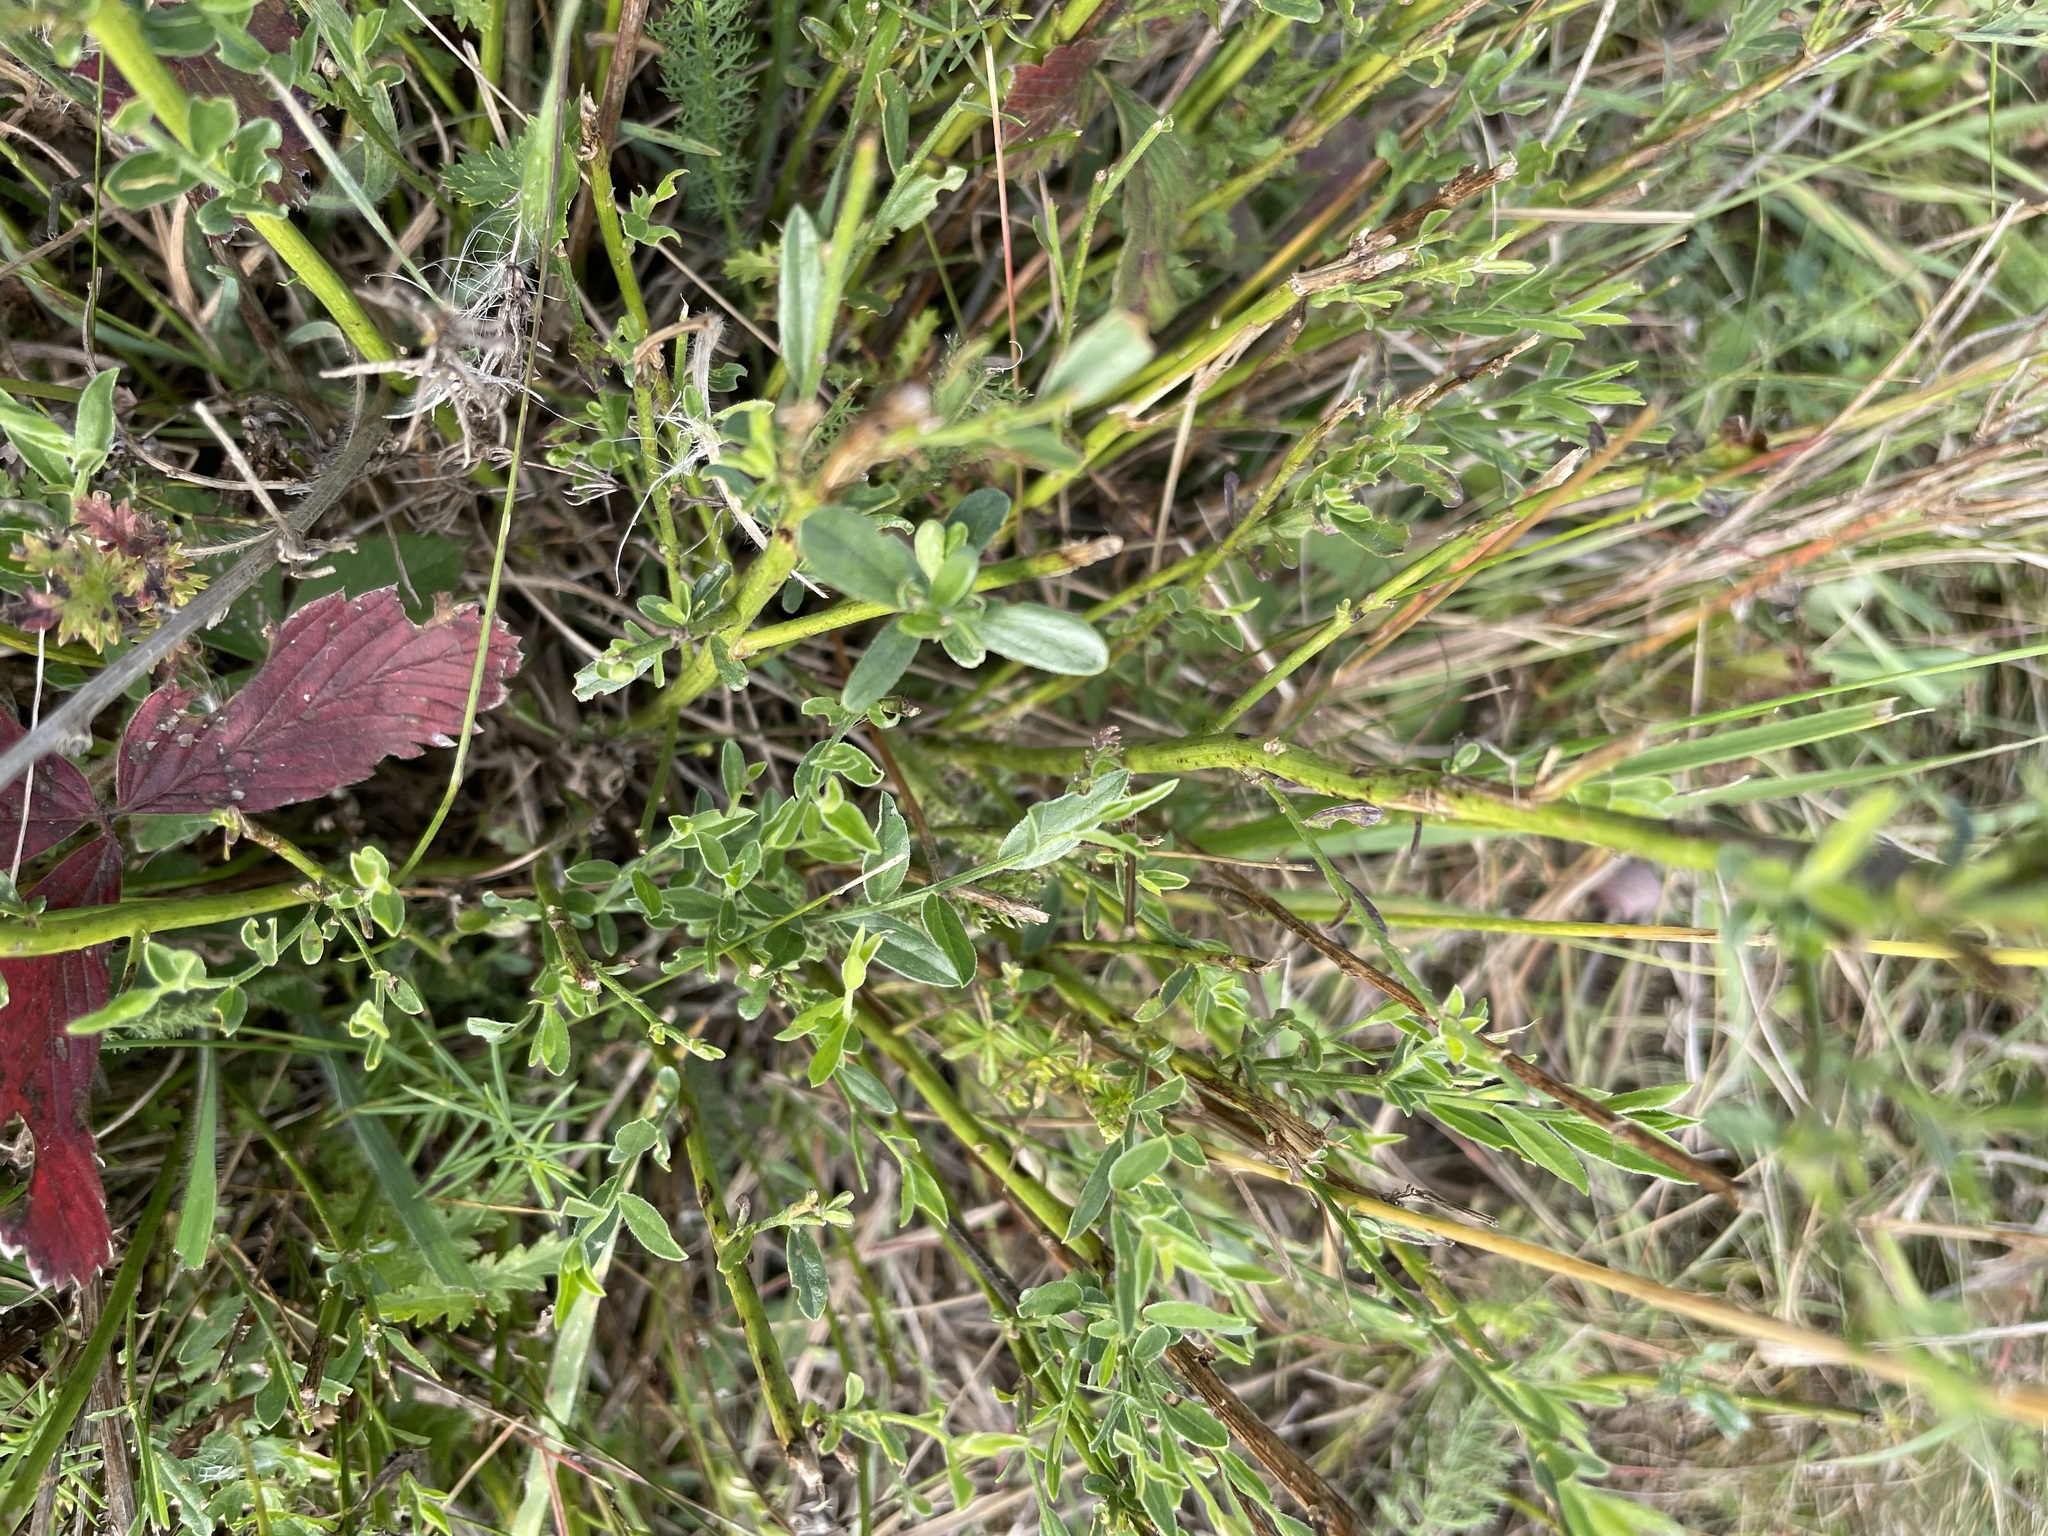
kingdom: Plantae
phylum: Tracheophyta
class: Magnoliopsida
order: Fabales
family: Fabaceae
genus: Genista
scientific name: Genista tinctoria
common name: Dyer's greenweed
